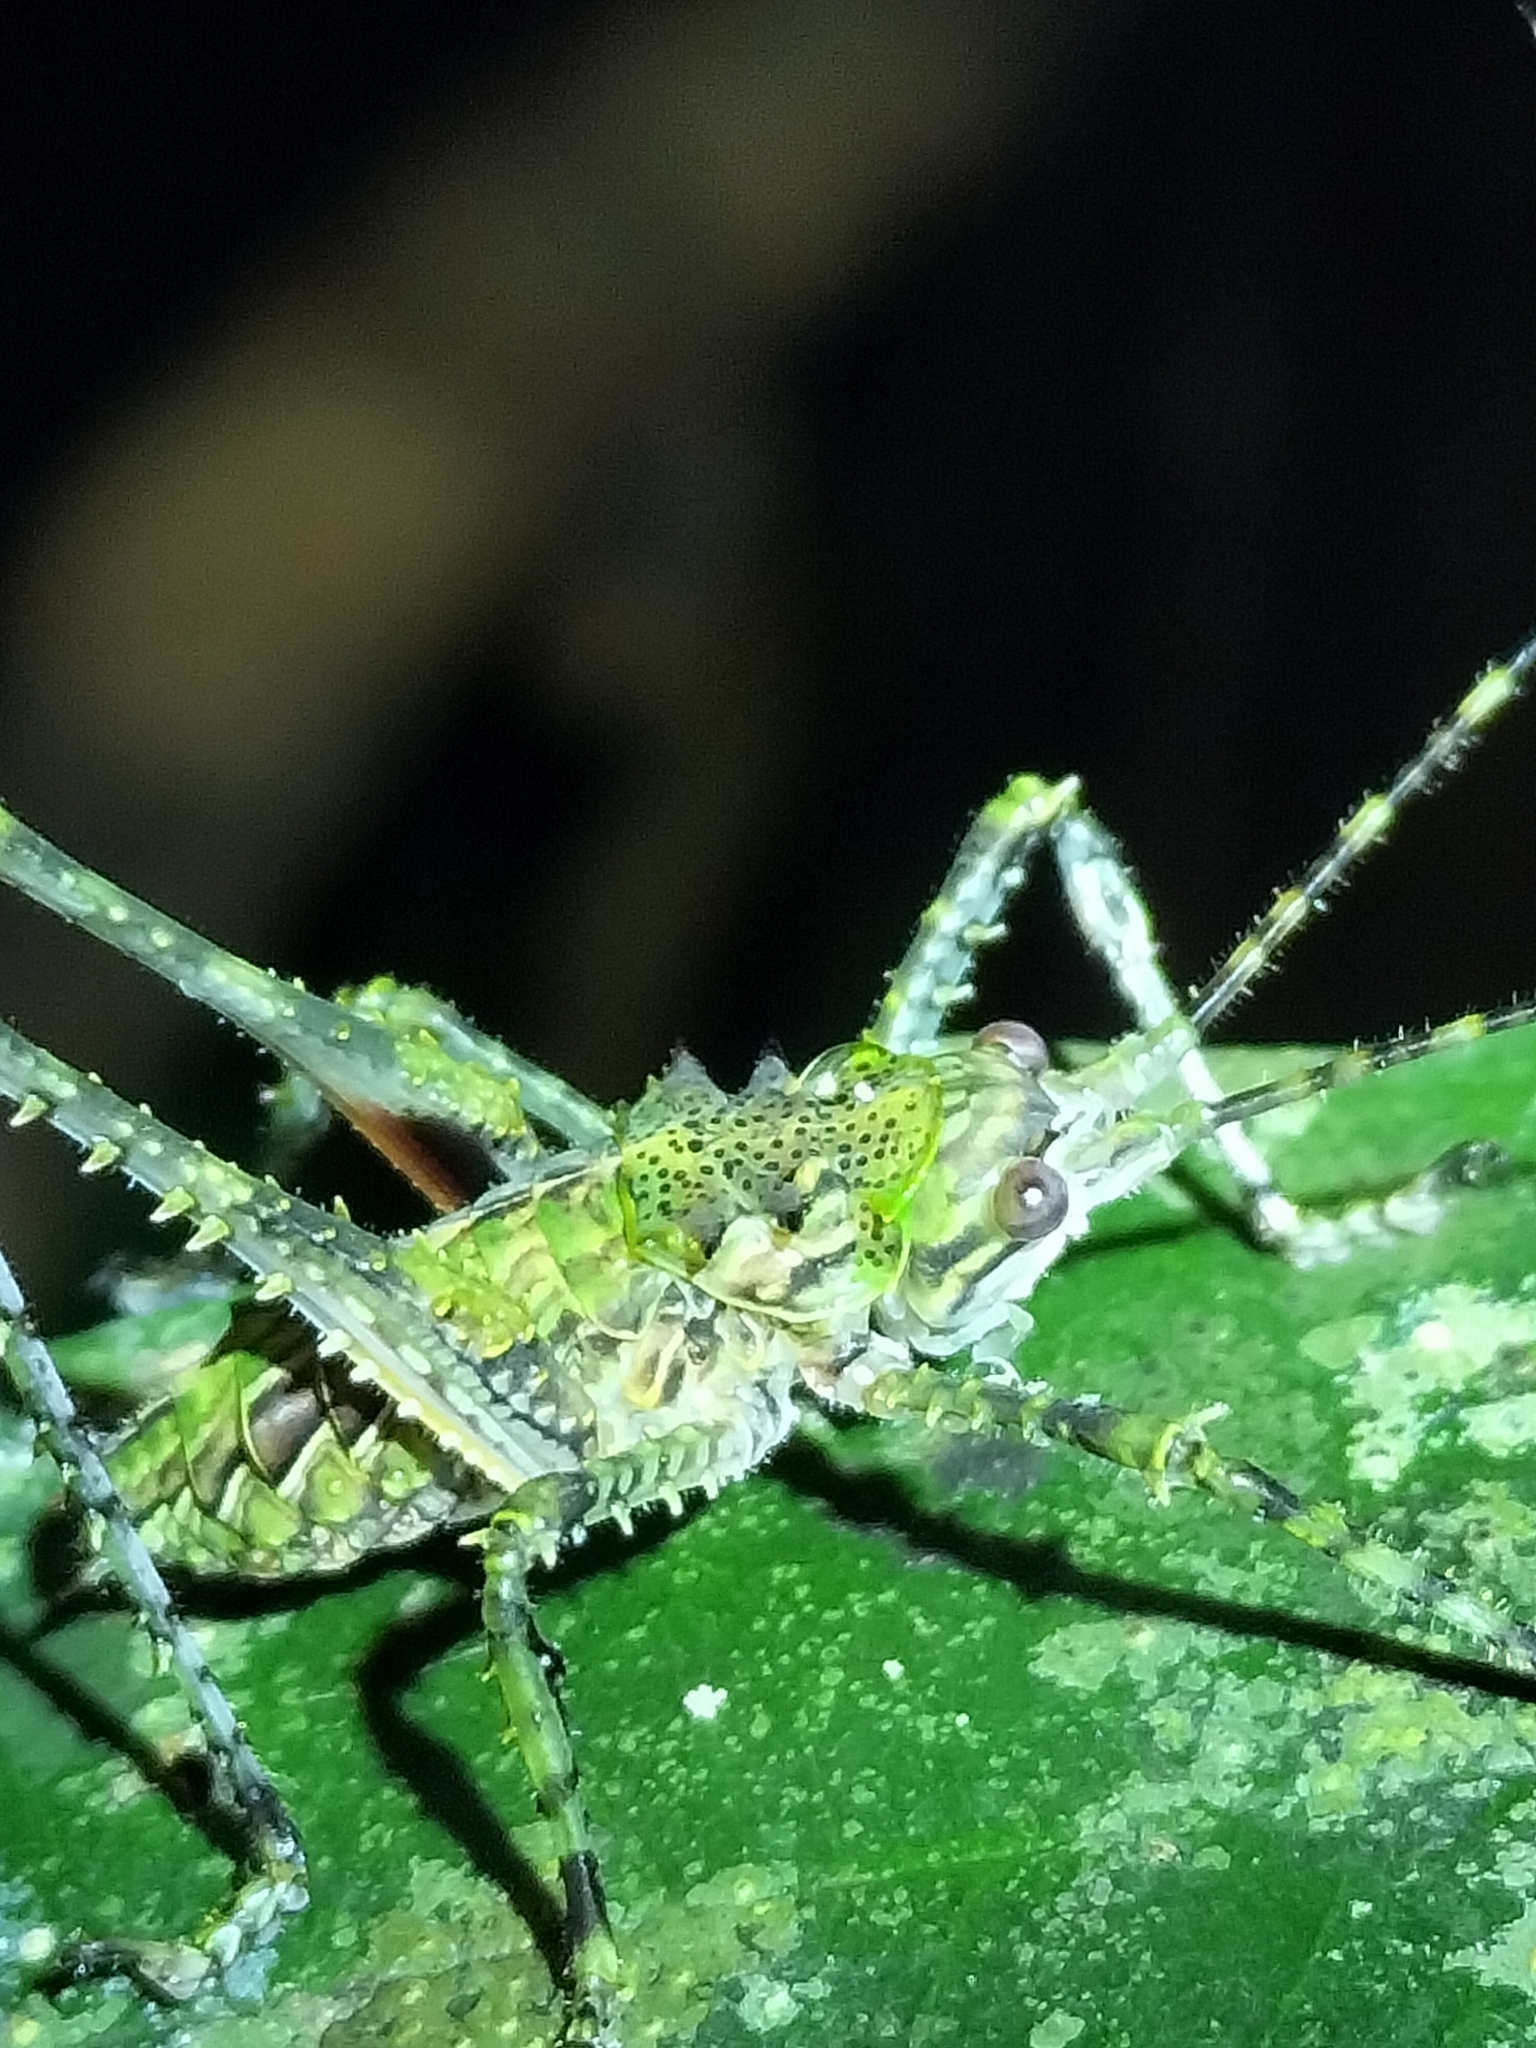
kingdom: Animalia
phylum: Arthropoda
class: Insecta
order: Orthoptera
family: Tettigoniidae
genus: Phricta
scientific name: Phricta spinosa
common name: Giant spiny forest katydid
